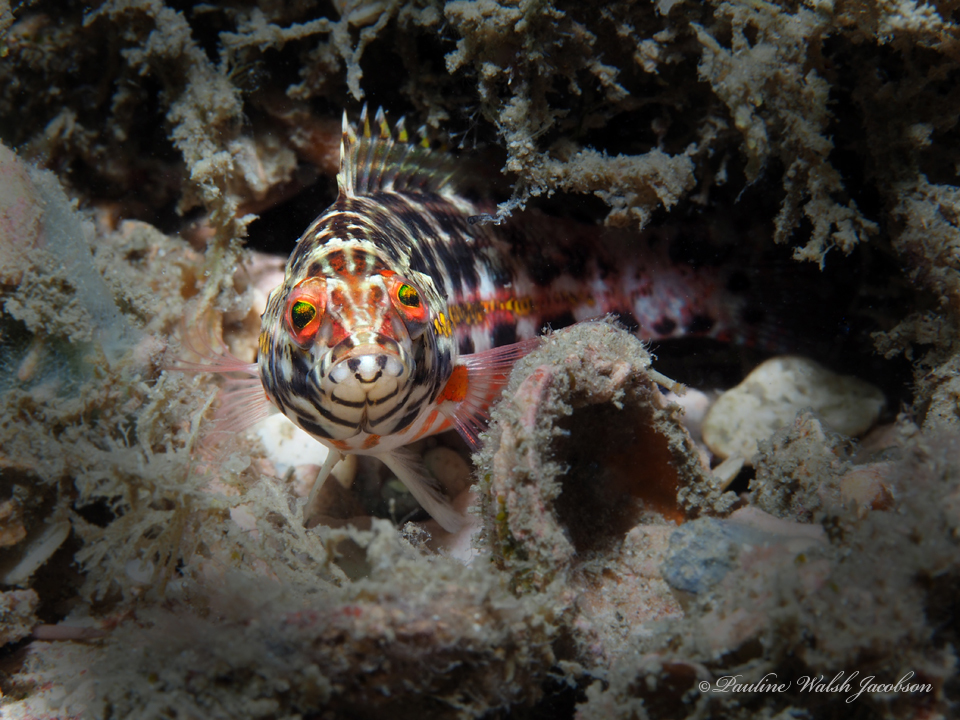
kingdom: Animalia
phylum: Chordata
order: Perciformes
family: Serranidae
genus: Serranus
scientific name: Serranus baldwini
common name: Lantern bass
